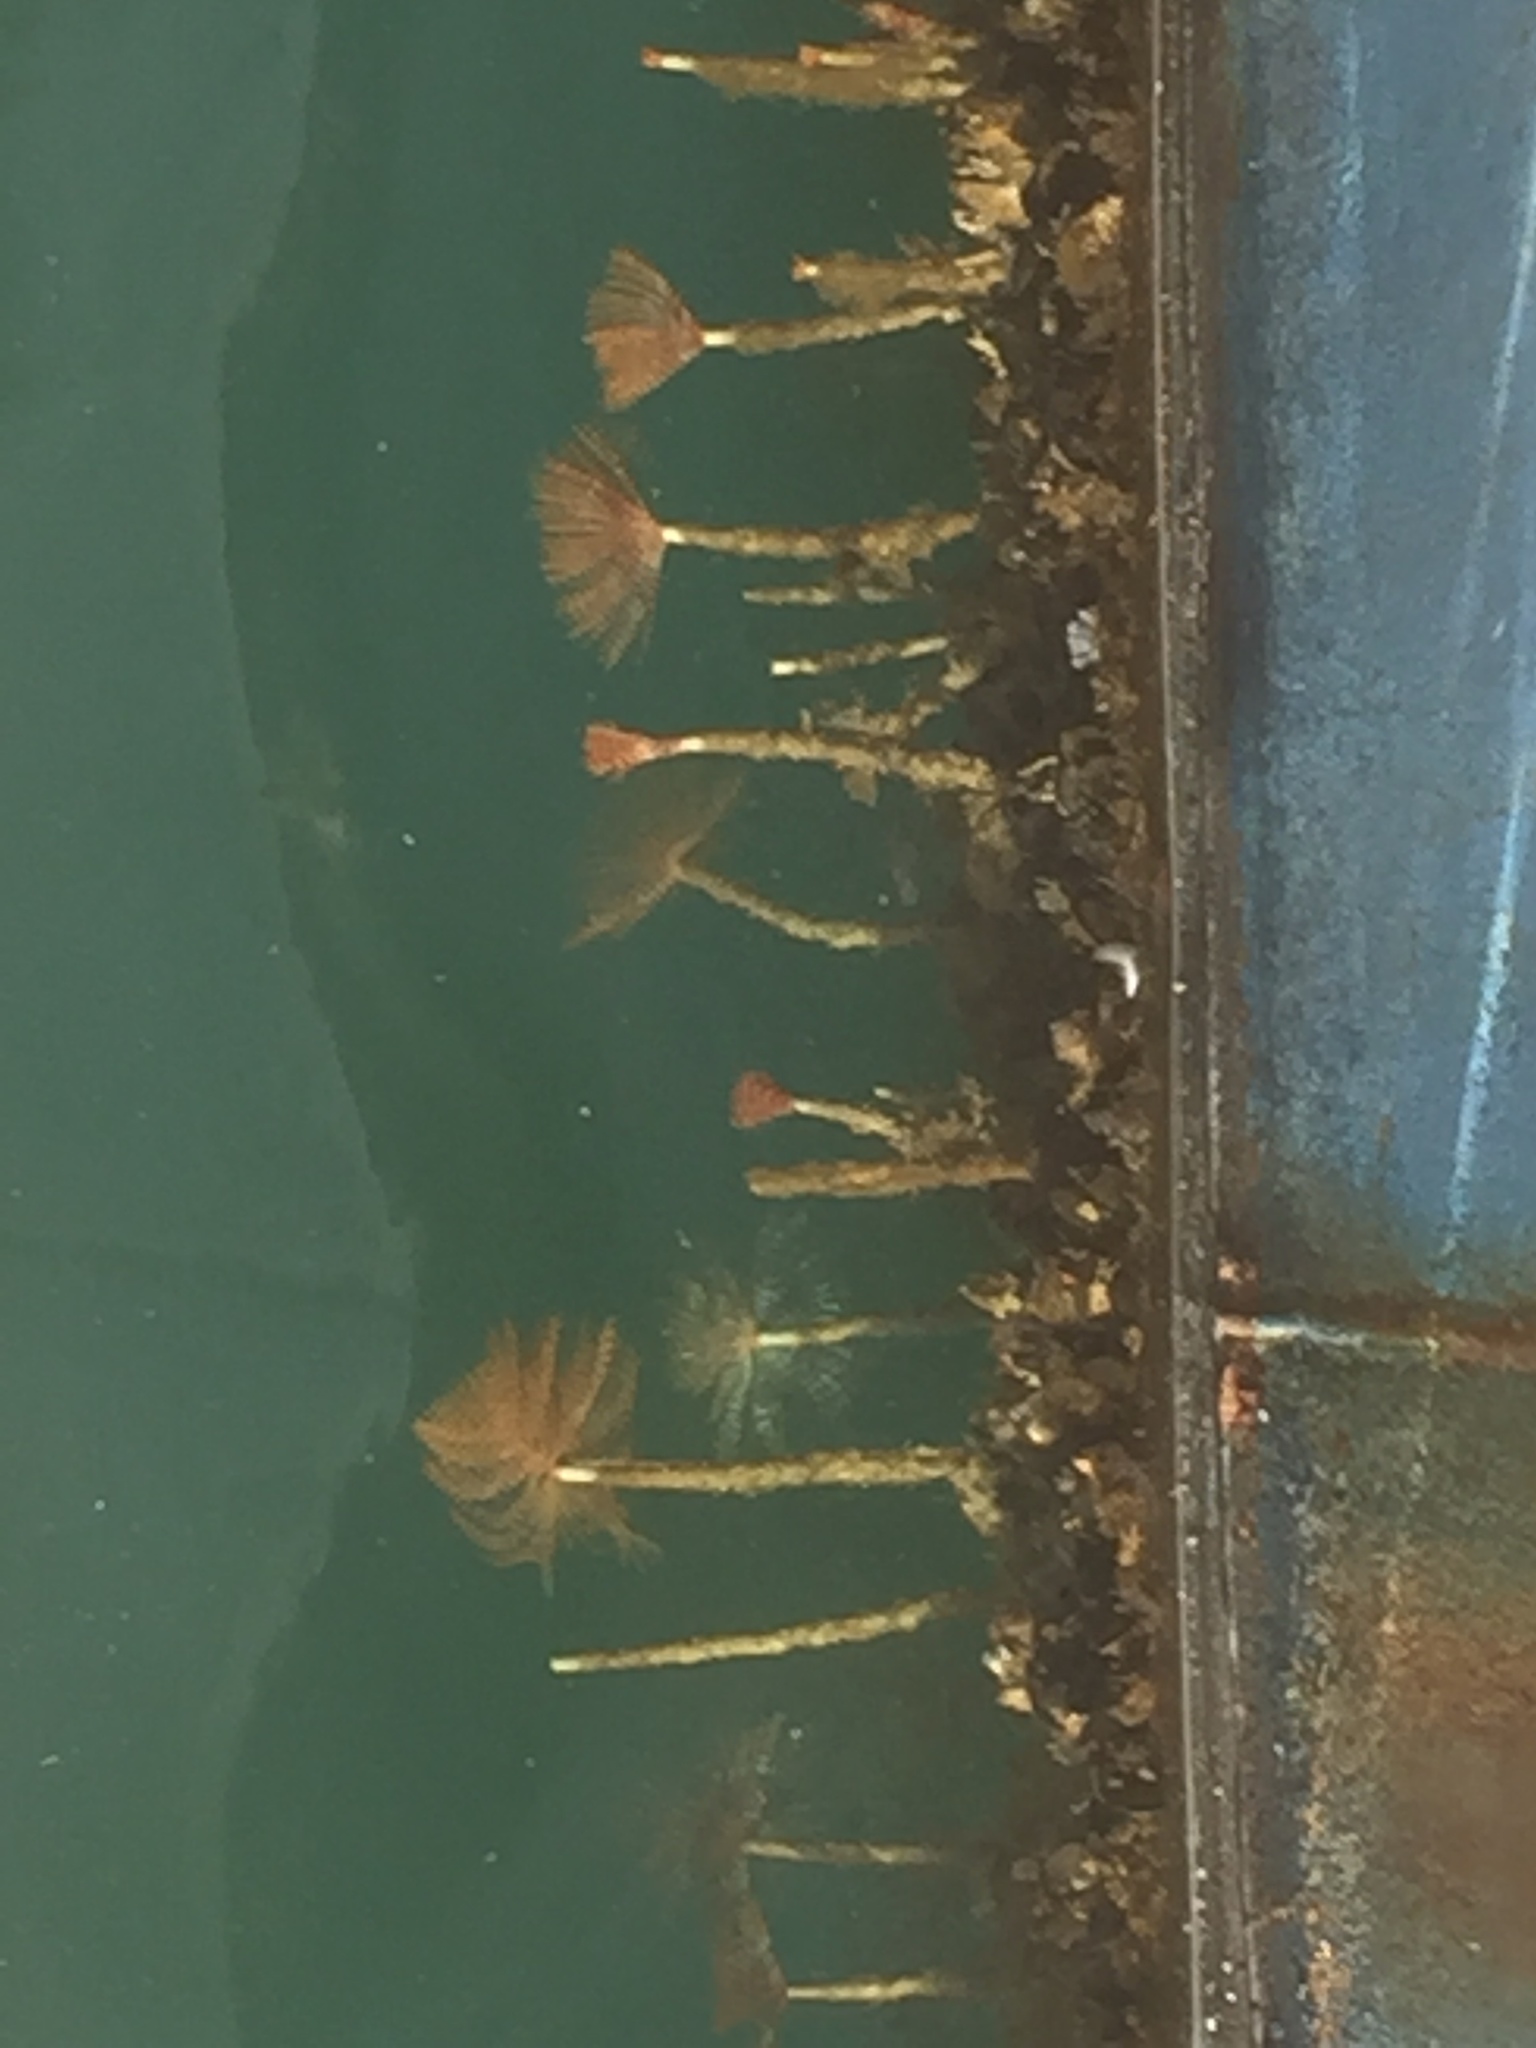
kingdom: Animalia
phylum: Annelida
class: Polychaeta
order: Sabellida
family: Sabellidae
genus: Sabella
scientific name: Sabella spallanzanii
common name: Feather duster worm
